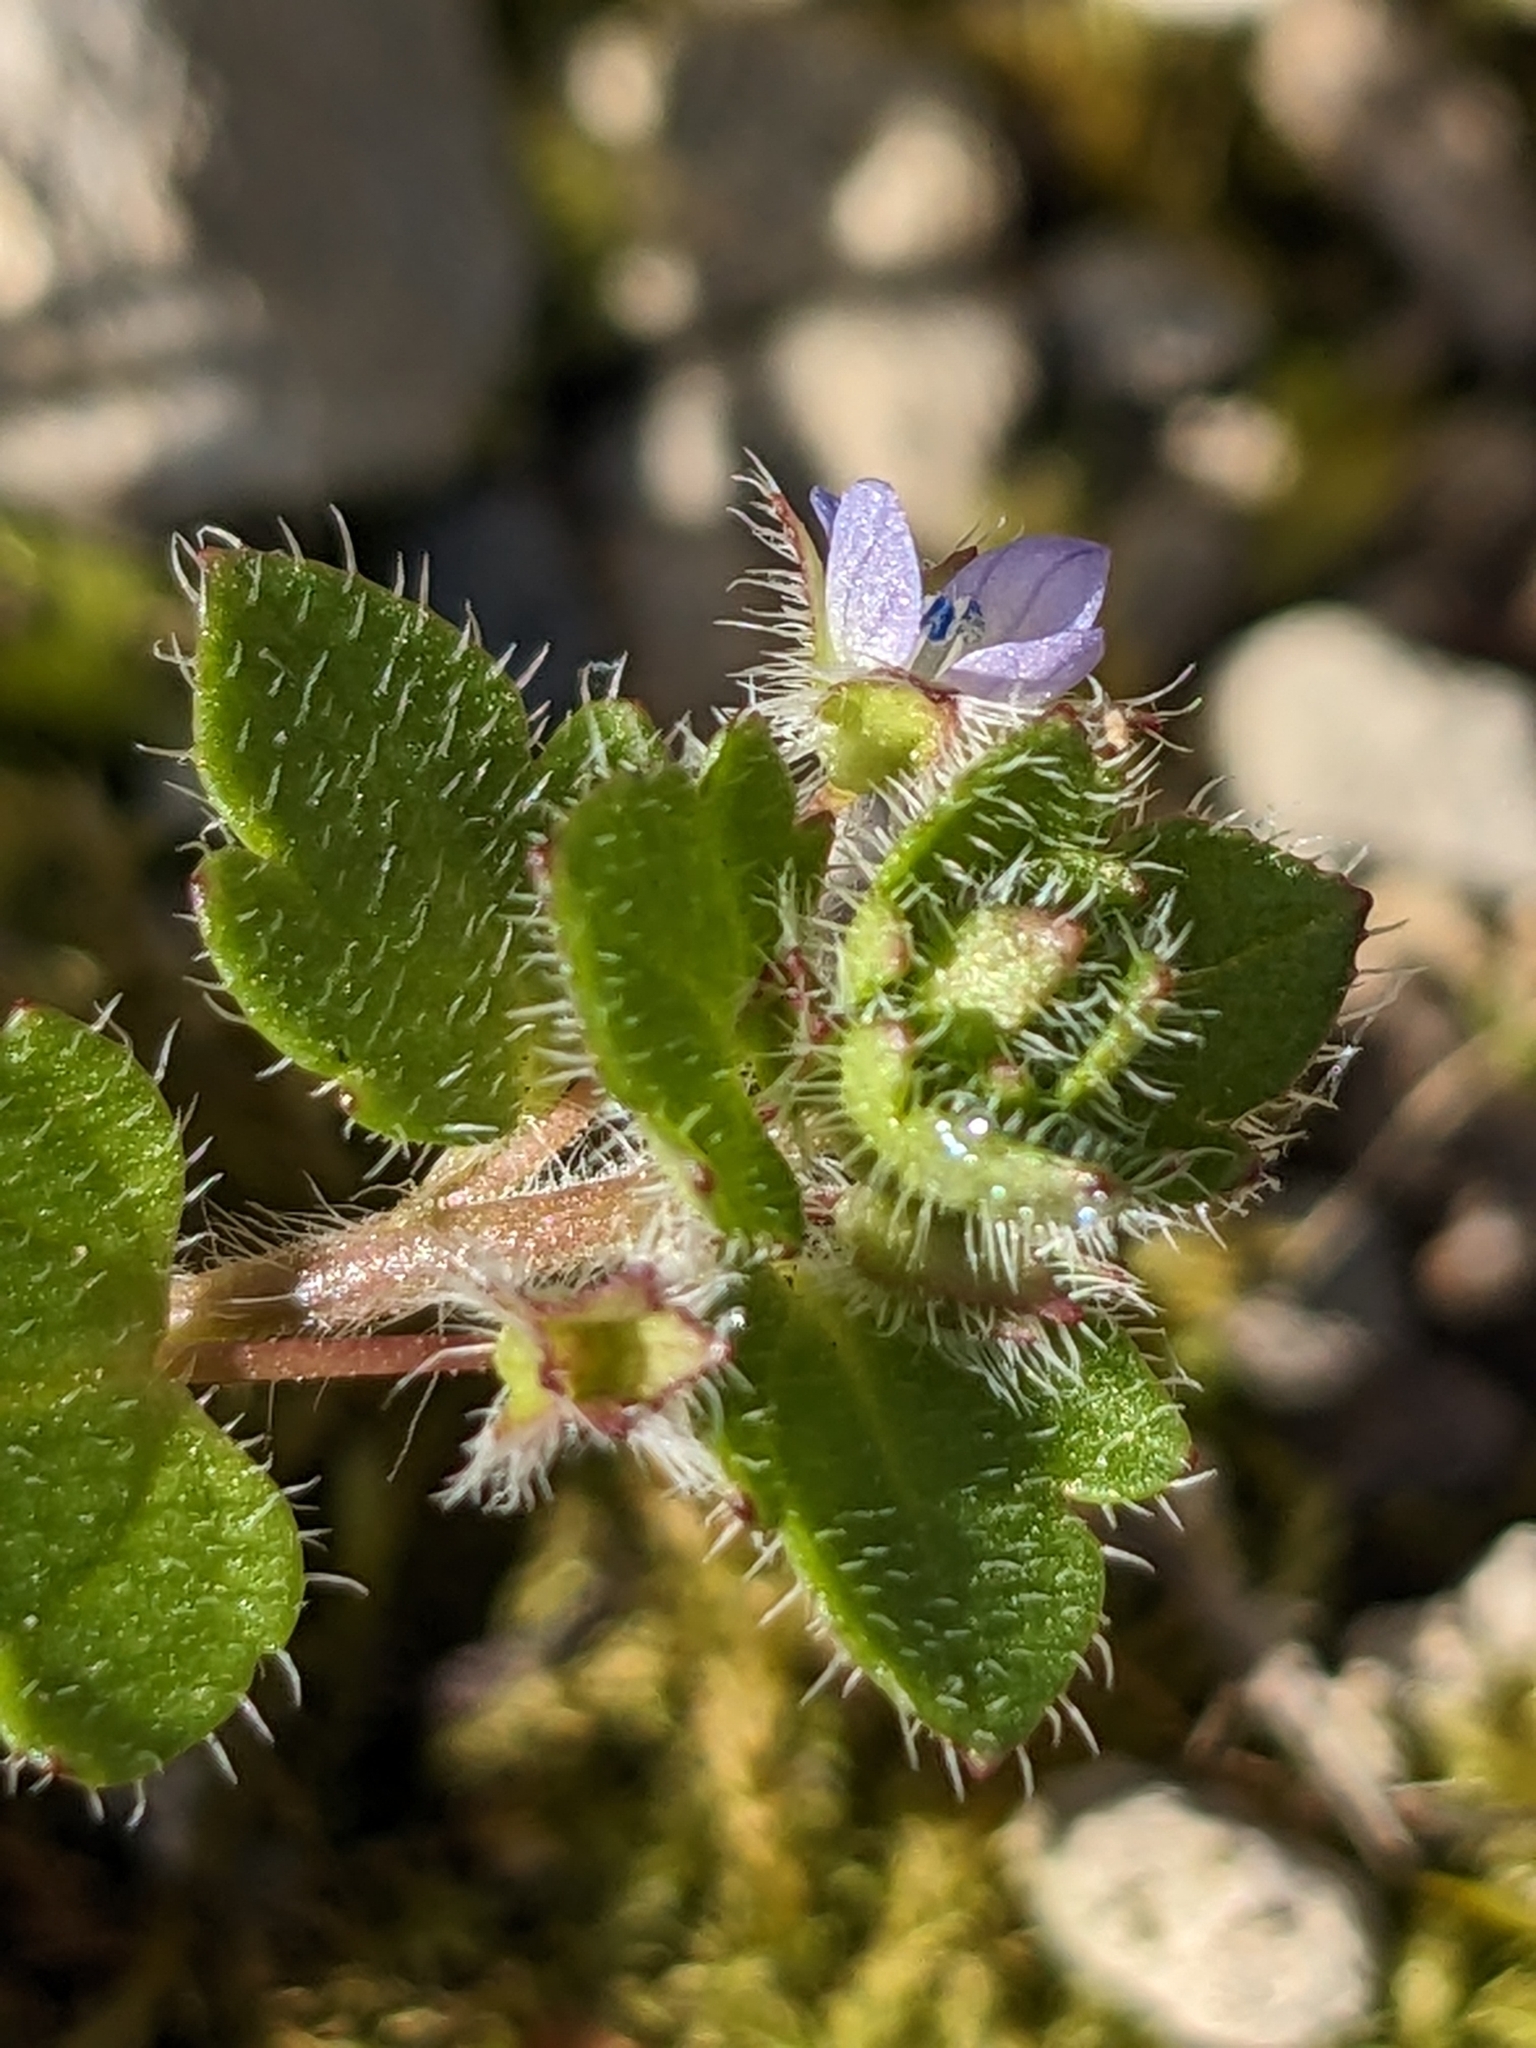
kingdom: Plantae
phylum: Tracheophyta
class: Magnoliopsida
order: Lamiales
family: Plantaginaceae
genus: Veronica
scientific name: Veronica hederifolia
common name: Ivy-leaved speedwell
